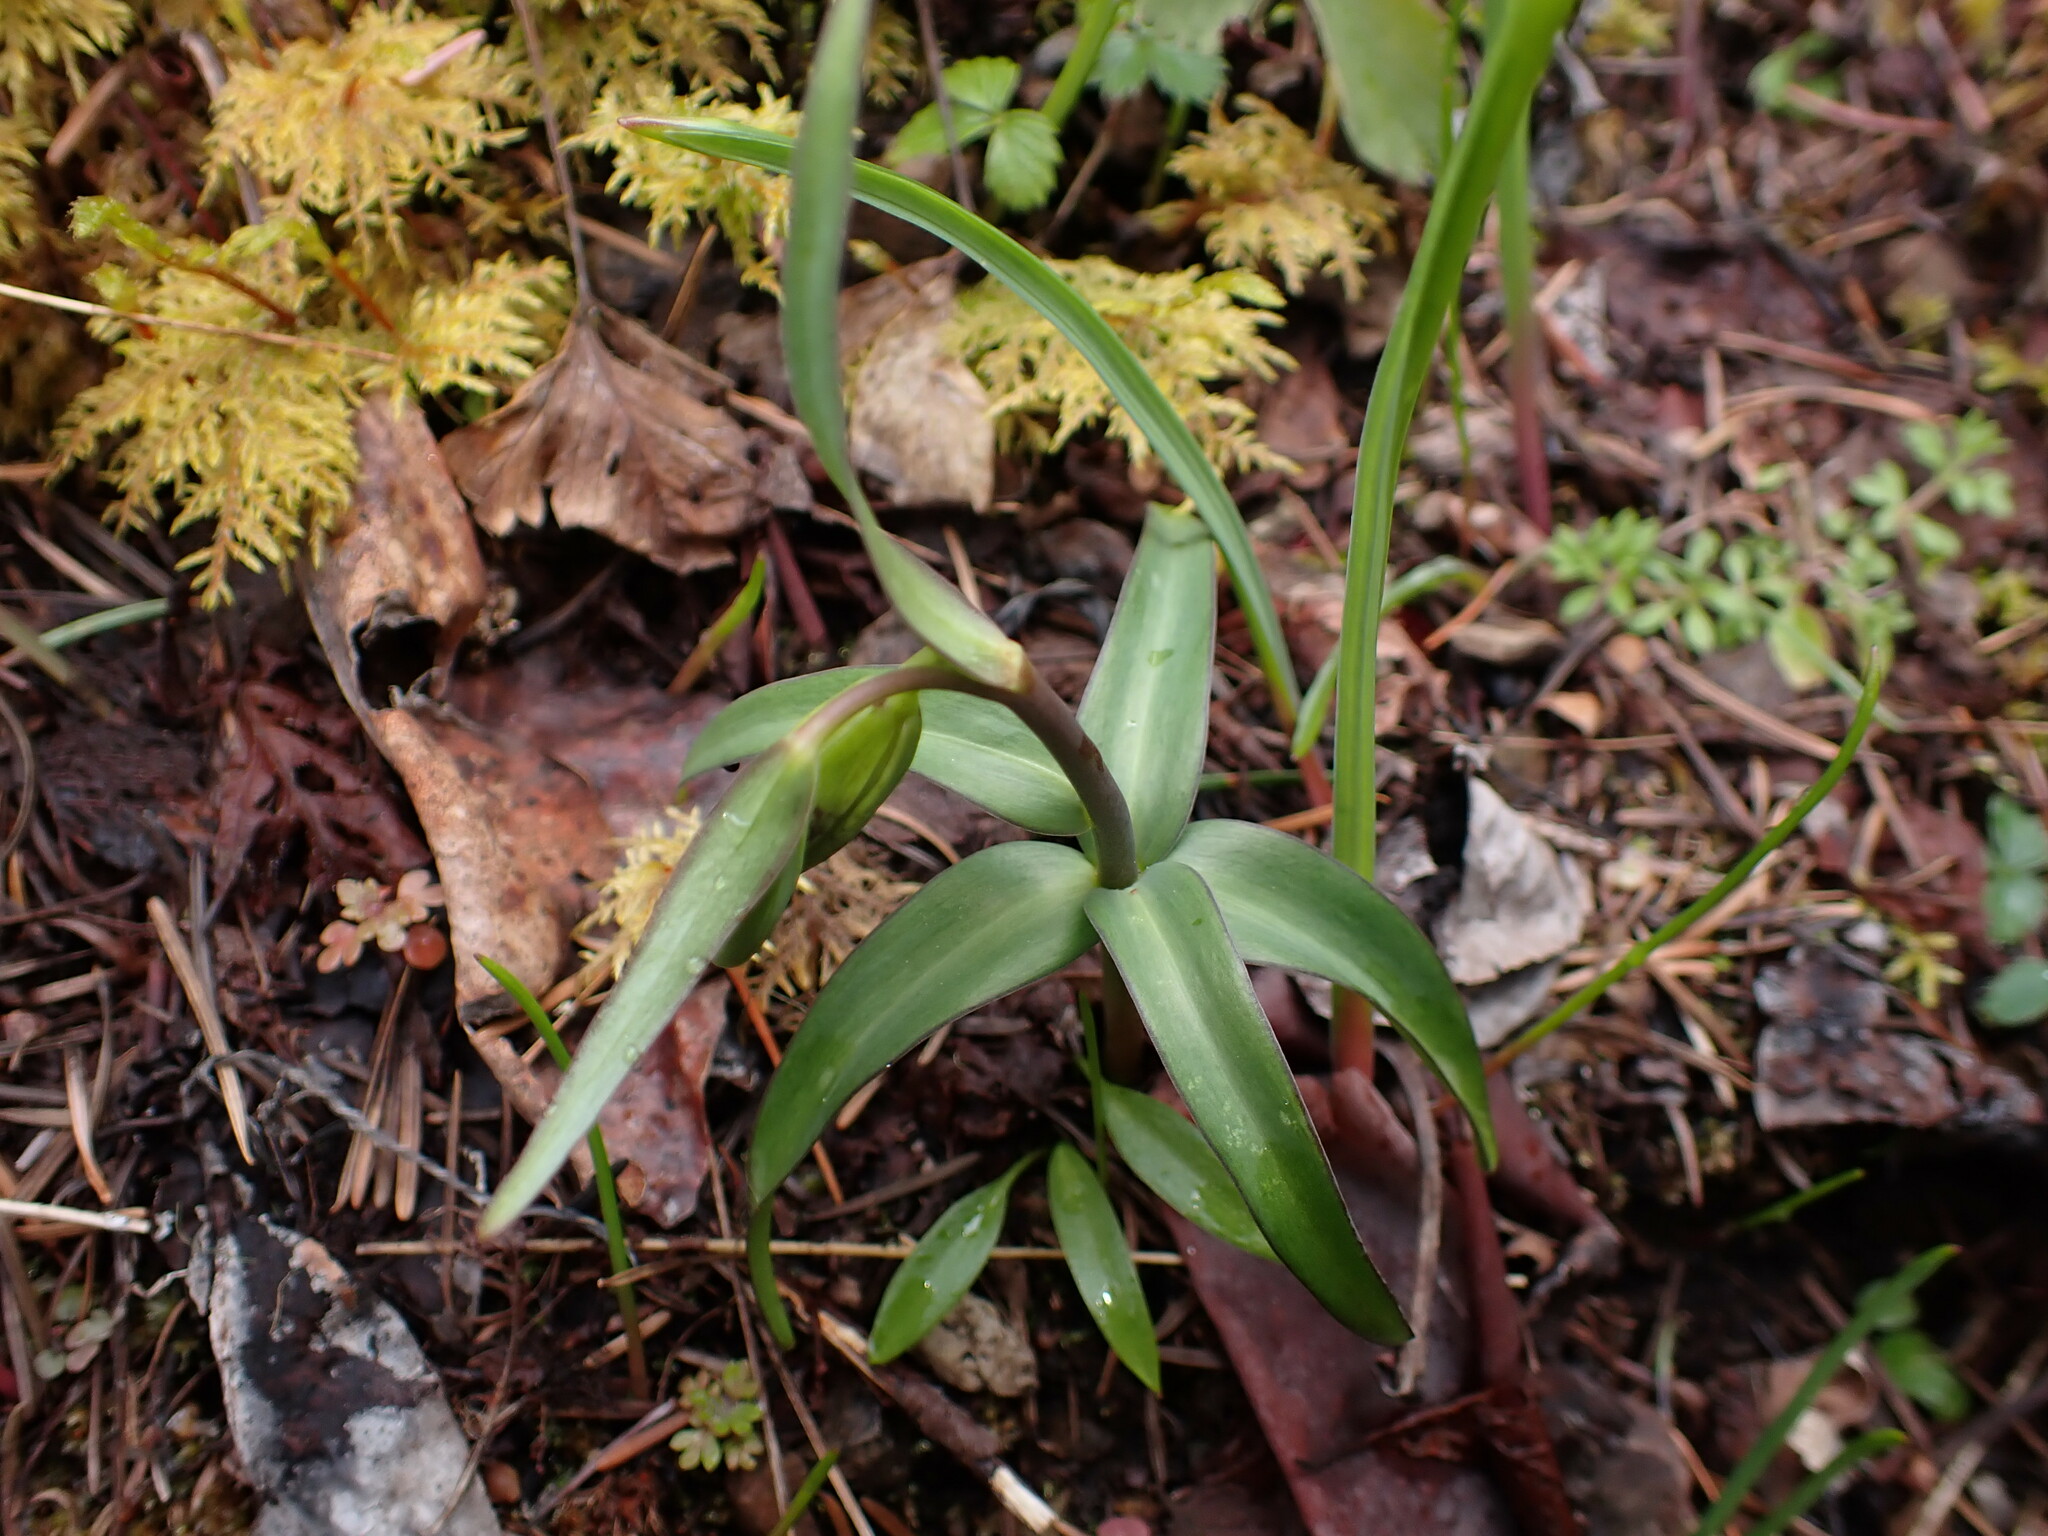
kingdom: Plantae
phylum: Tracheophyta
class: Liliopsida
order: Liliales
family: Liliaceae
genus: Fritillaria
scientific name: Fritillaria affinis
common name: Ojai fritillary
